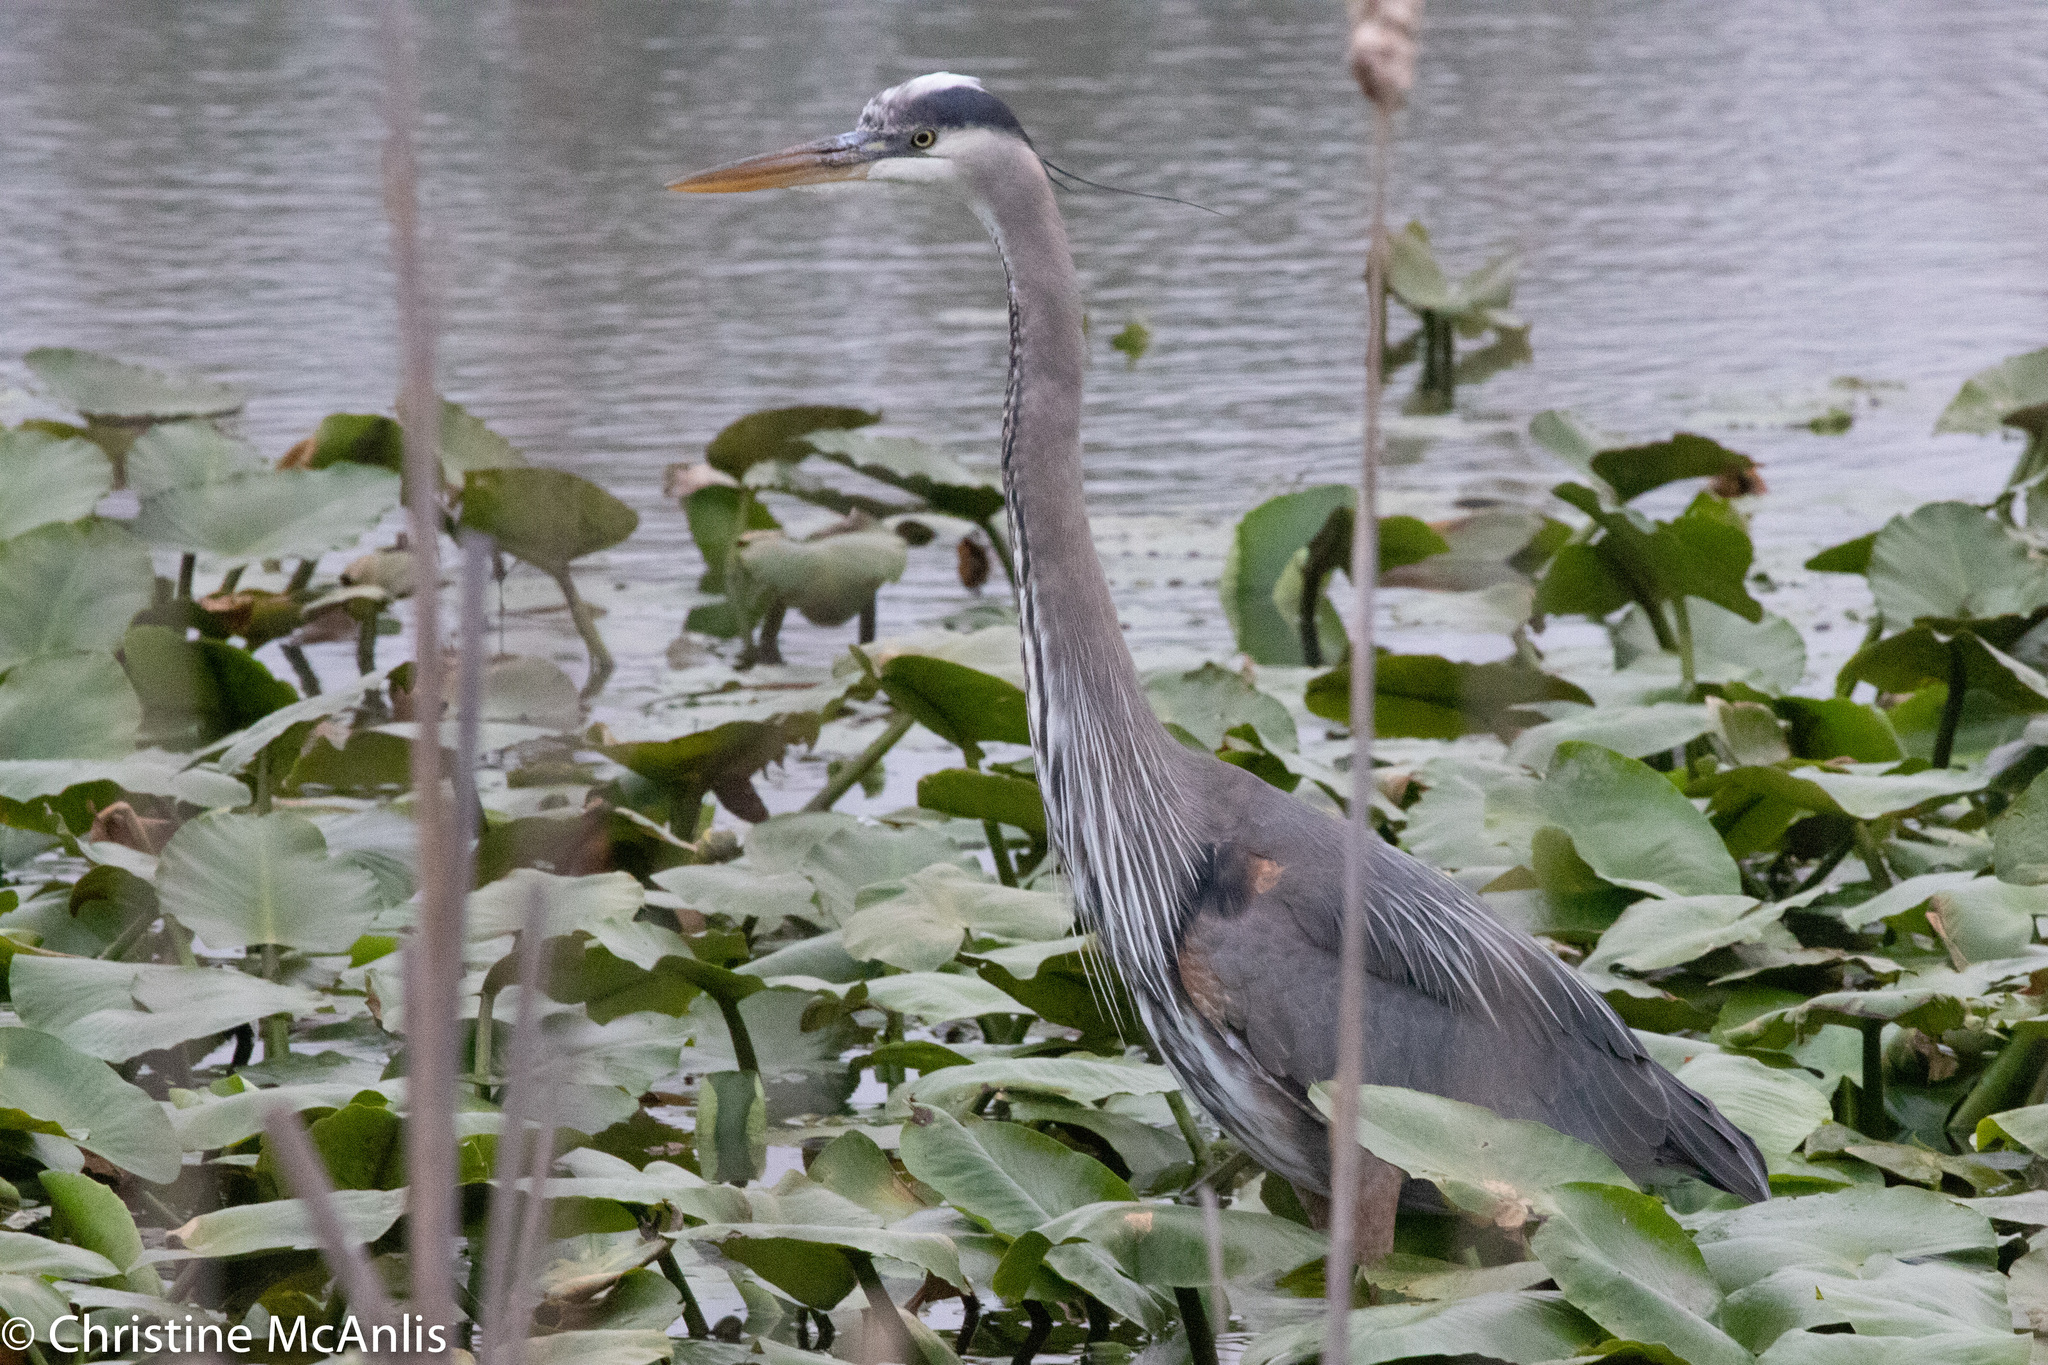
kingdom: Animalia
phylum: Chordata
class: Aves
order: Pelecaniformes
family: Ardeidae
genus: Ardea
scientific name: Ardea herodias
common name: Great blue heron
